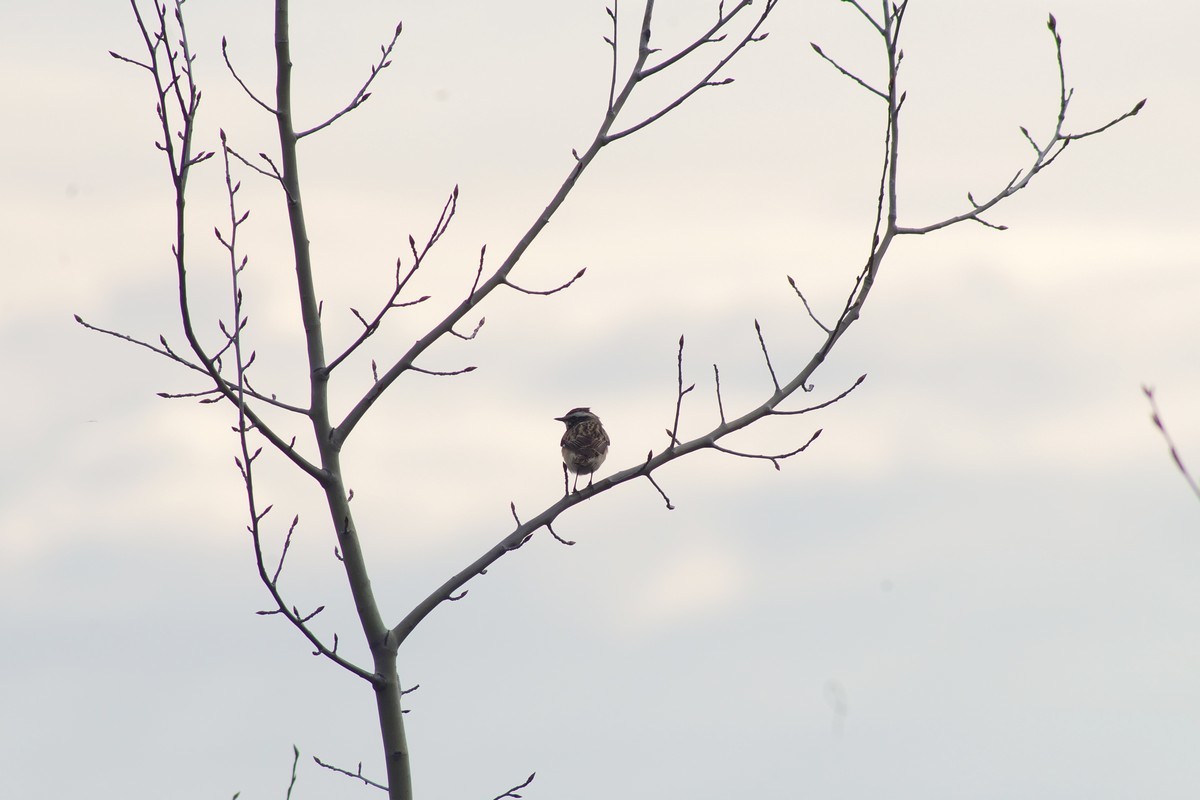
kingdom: Animalia
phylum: Chordata
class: Aves
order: Passeriformes
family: Muscicapidae
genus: Saxicola
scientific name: Saxicola rubetra
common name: Whinchat
